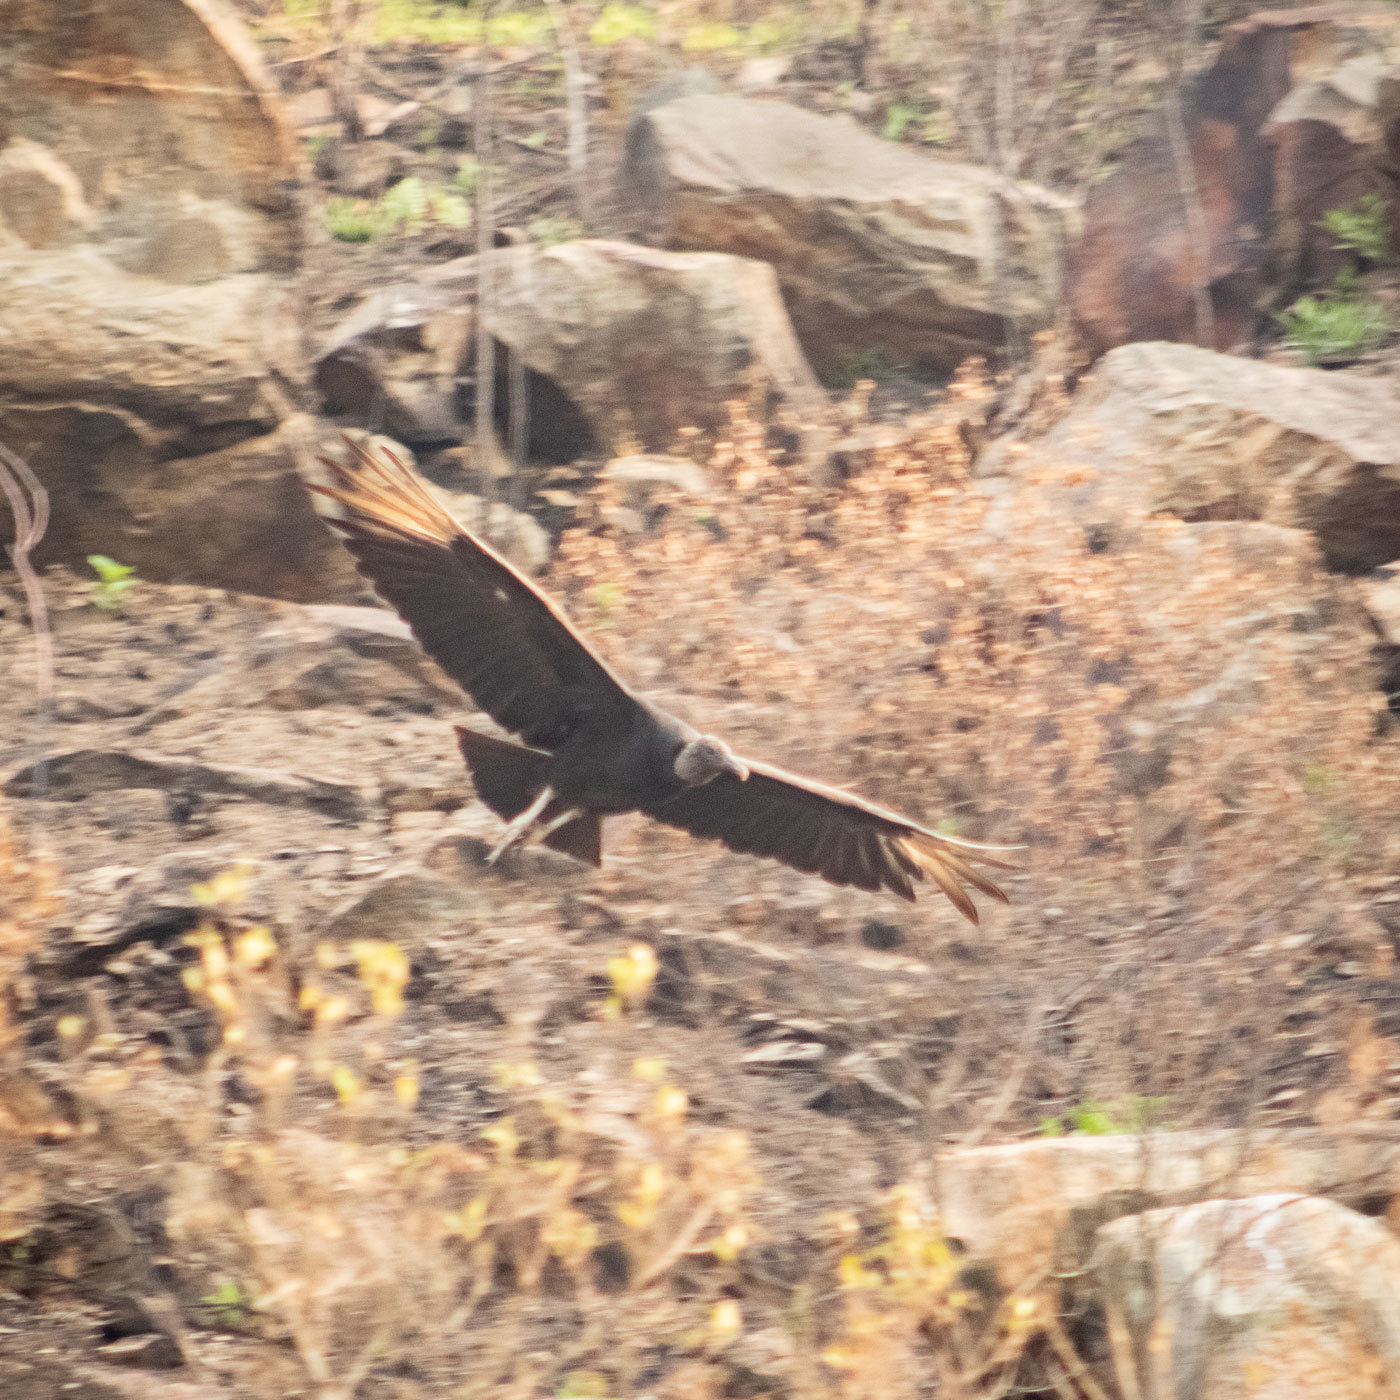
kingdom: Animalia
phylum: Chordata
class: Aves
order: Accipitriformes
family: Cathartidae
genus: Coragyps
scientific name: Coragyps atratus
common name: Black vulture
